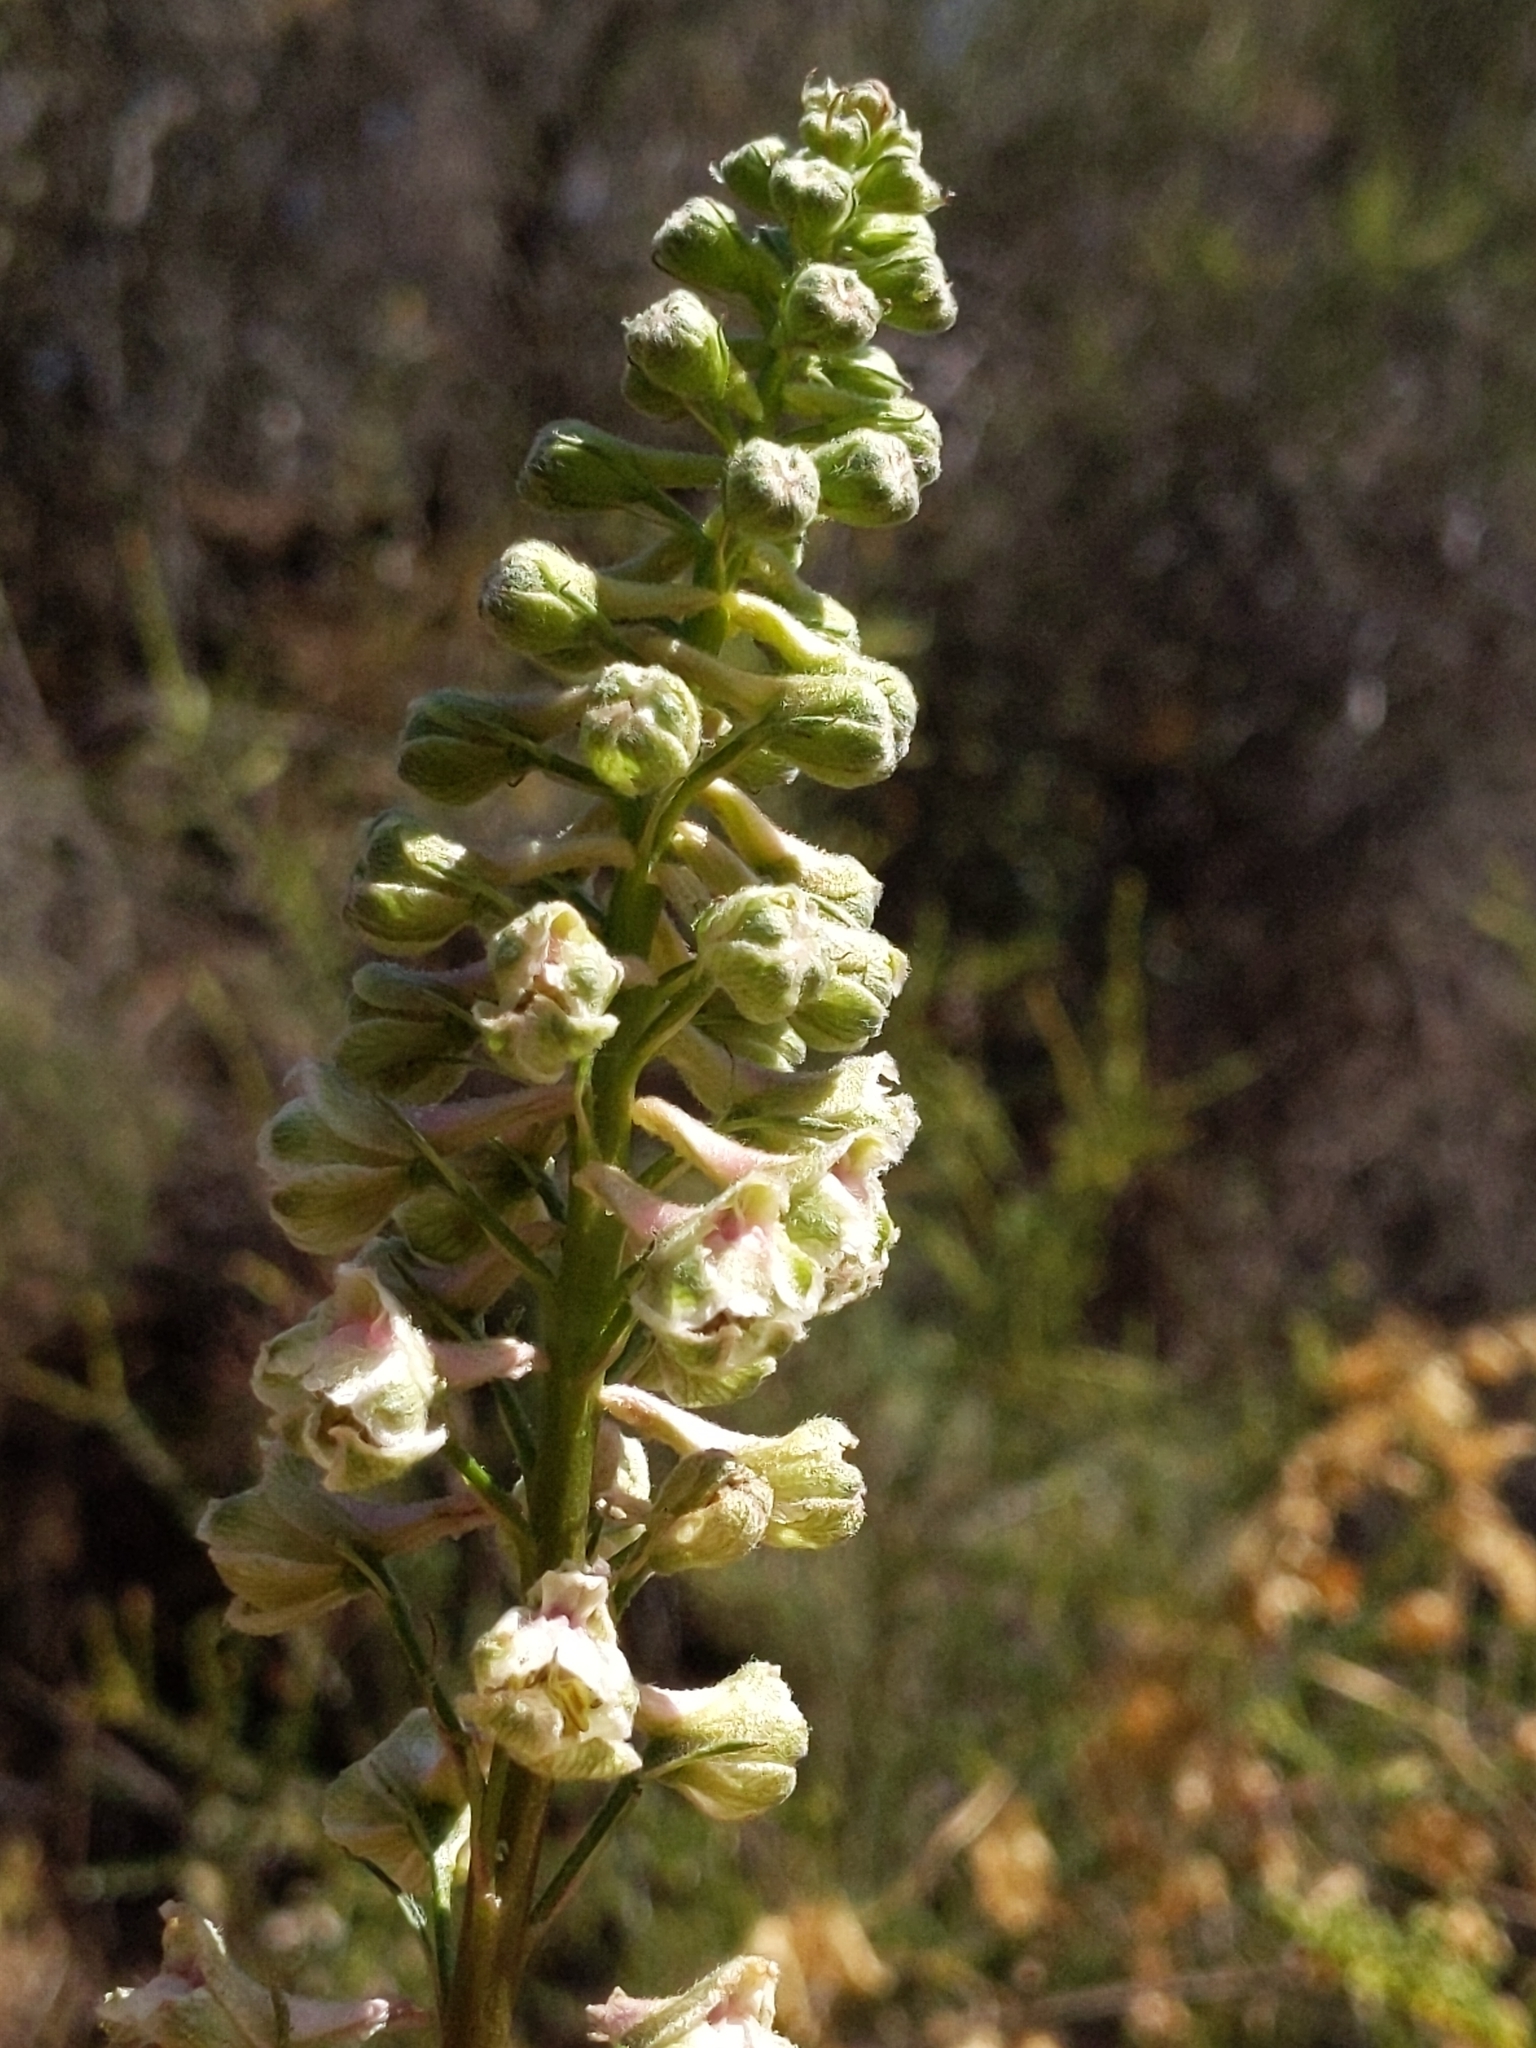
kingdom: Plantae
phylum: Tracheophyta
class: Magnoliopsida
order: Ranunculales
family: Ranunculaceae
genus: Delphinium
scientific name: Delphinium californicum
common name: California larkspur
